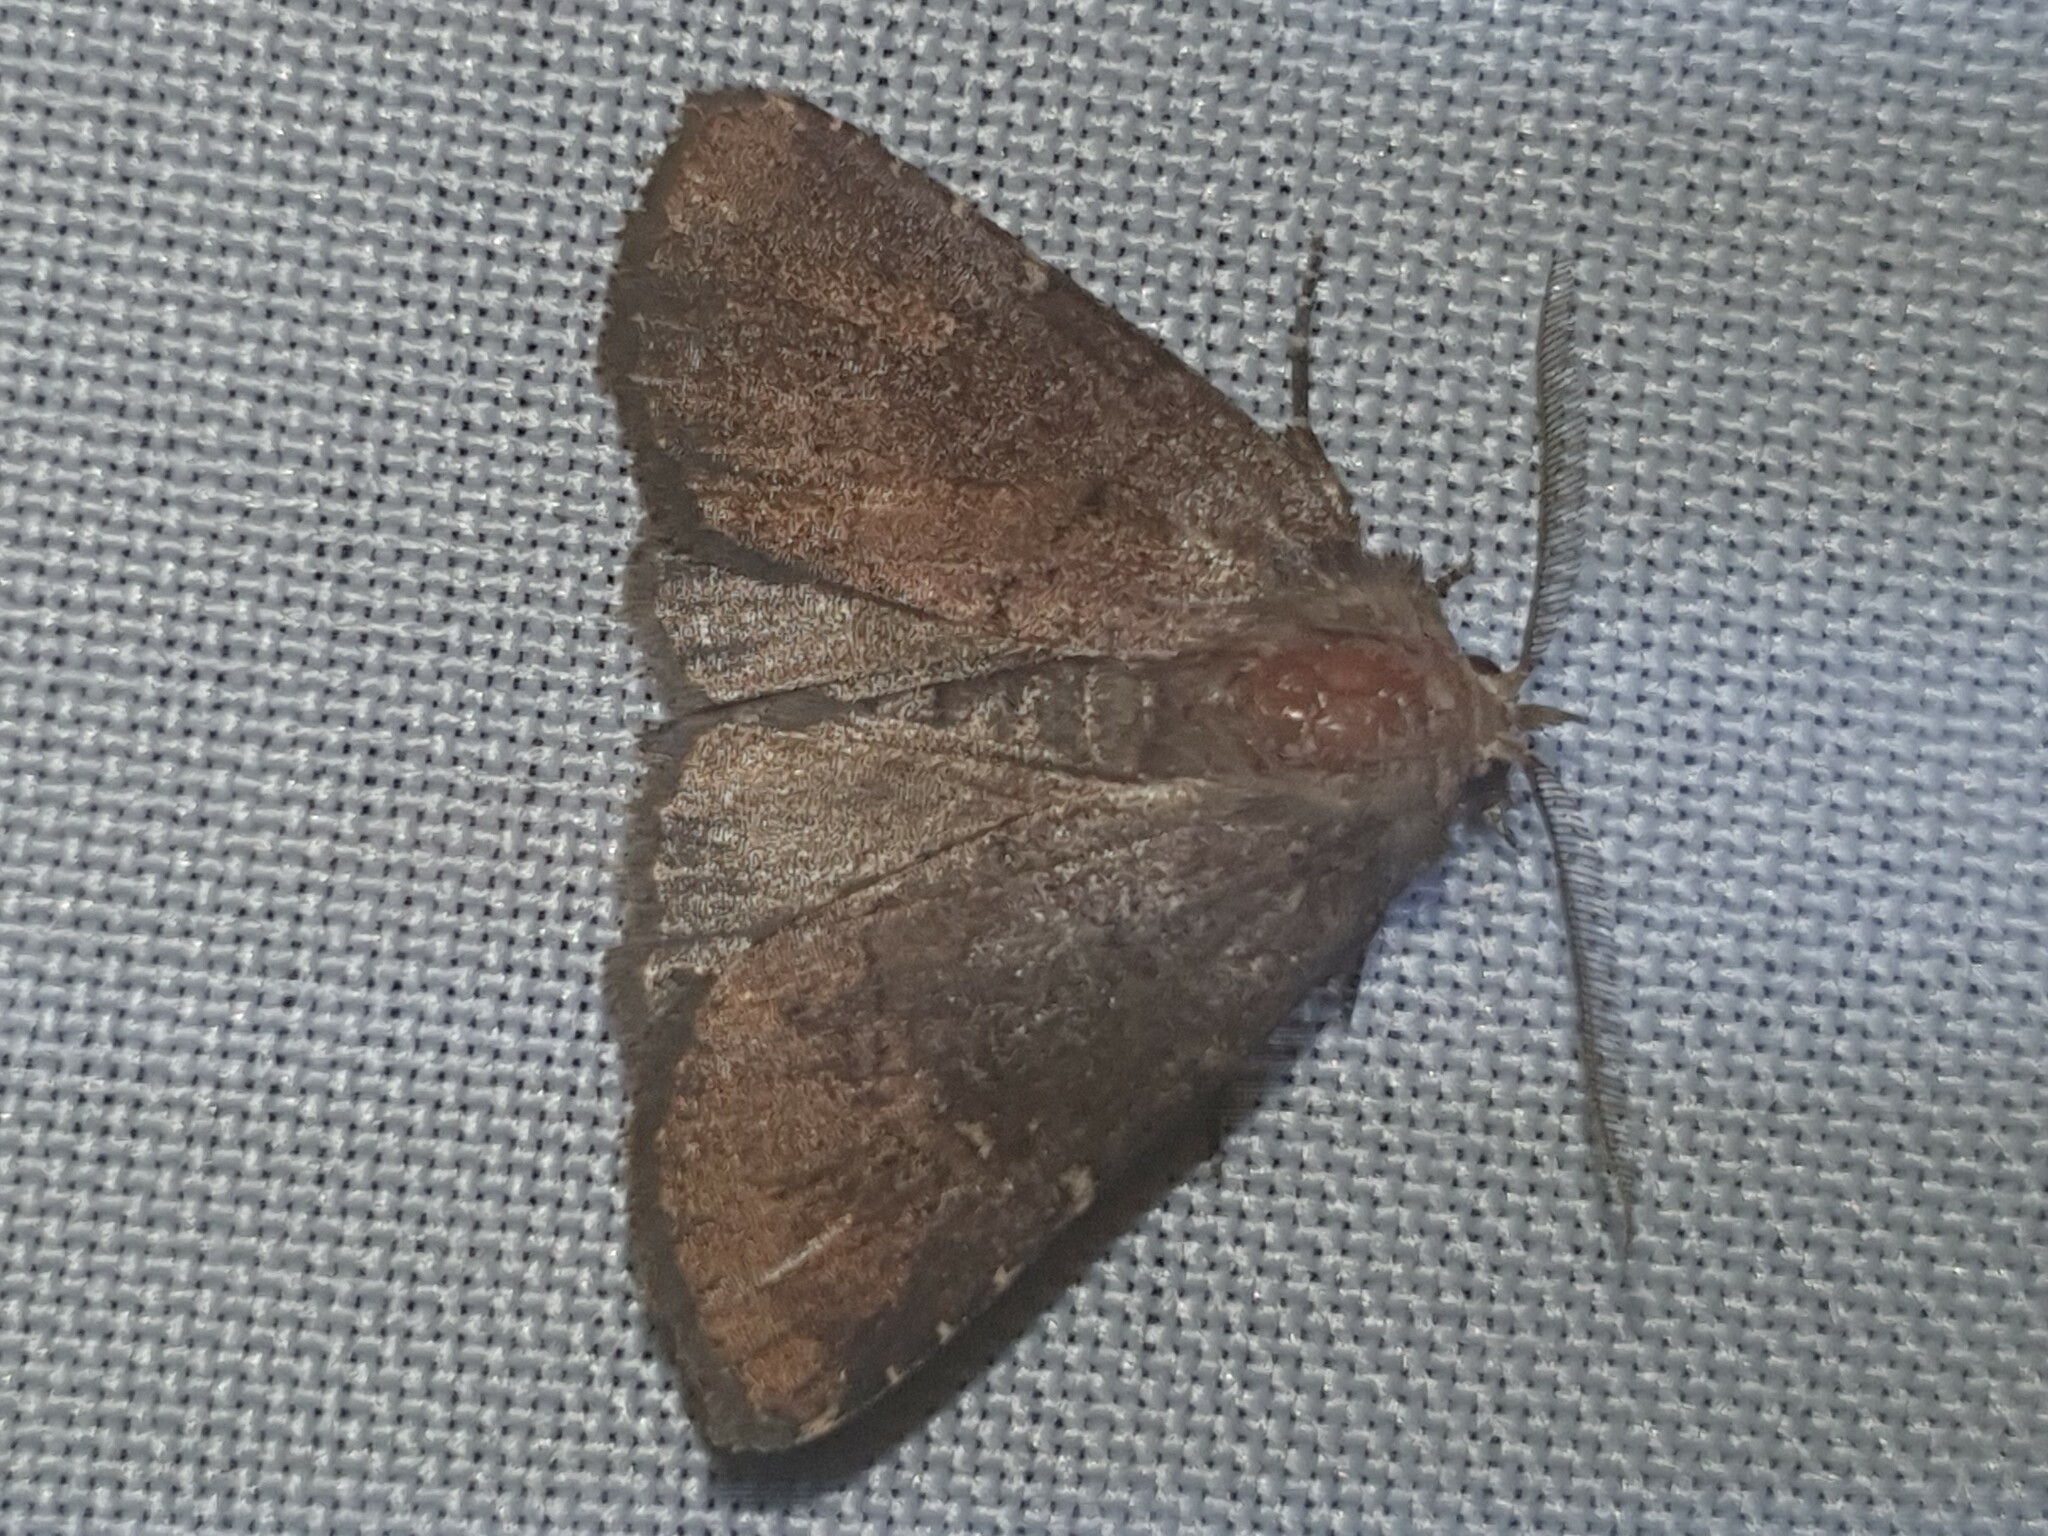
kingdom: Animalia
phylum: Arthropoda
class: Insecta
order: Lepidoptera
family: Noctuidae
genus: Charanyca
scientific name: Charanyca ferruginea
